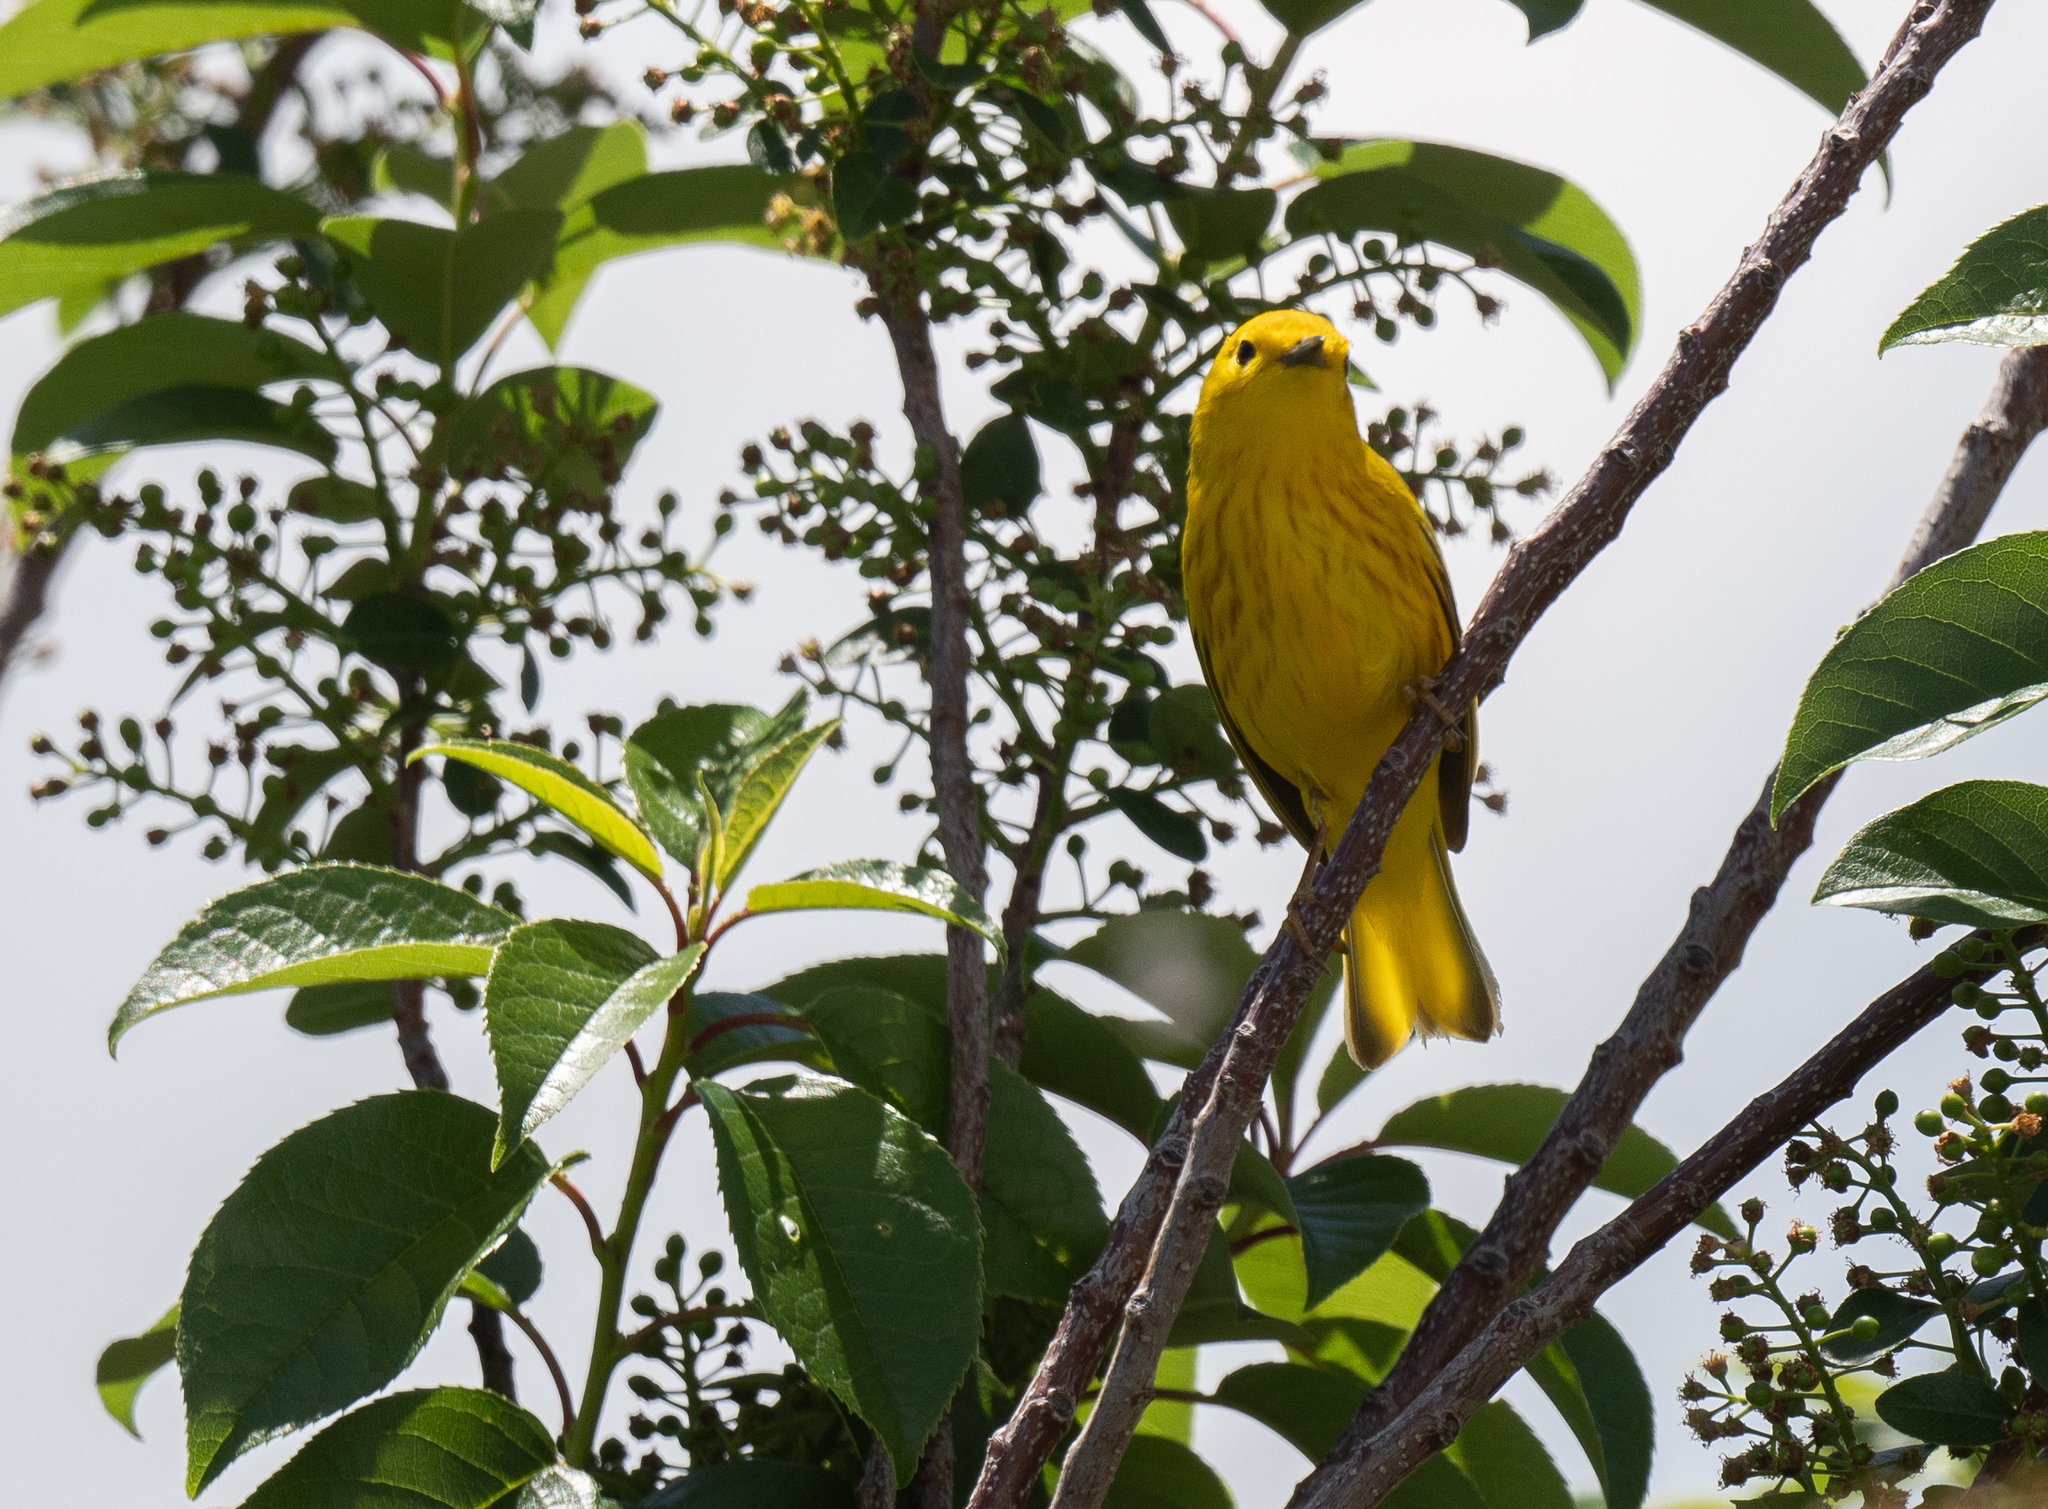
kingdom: Animalia
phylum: Chordata
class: Aves
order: Passeriformes
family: Parulidae
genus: Setophaga
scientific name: Setophaga petechia
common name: Yellow warbler
